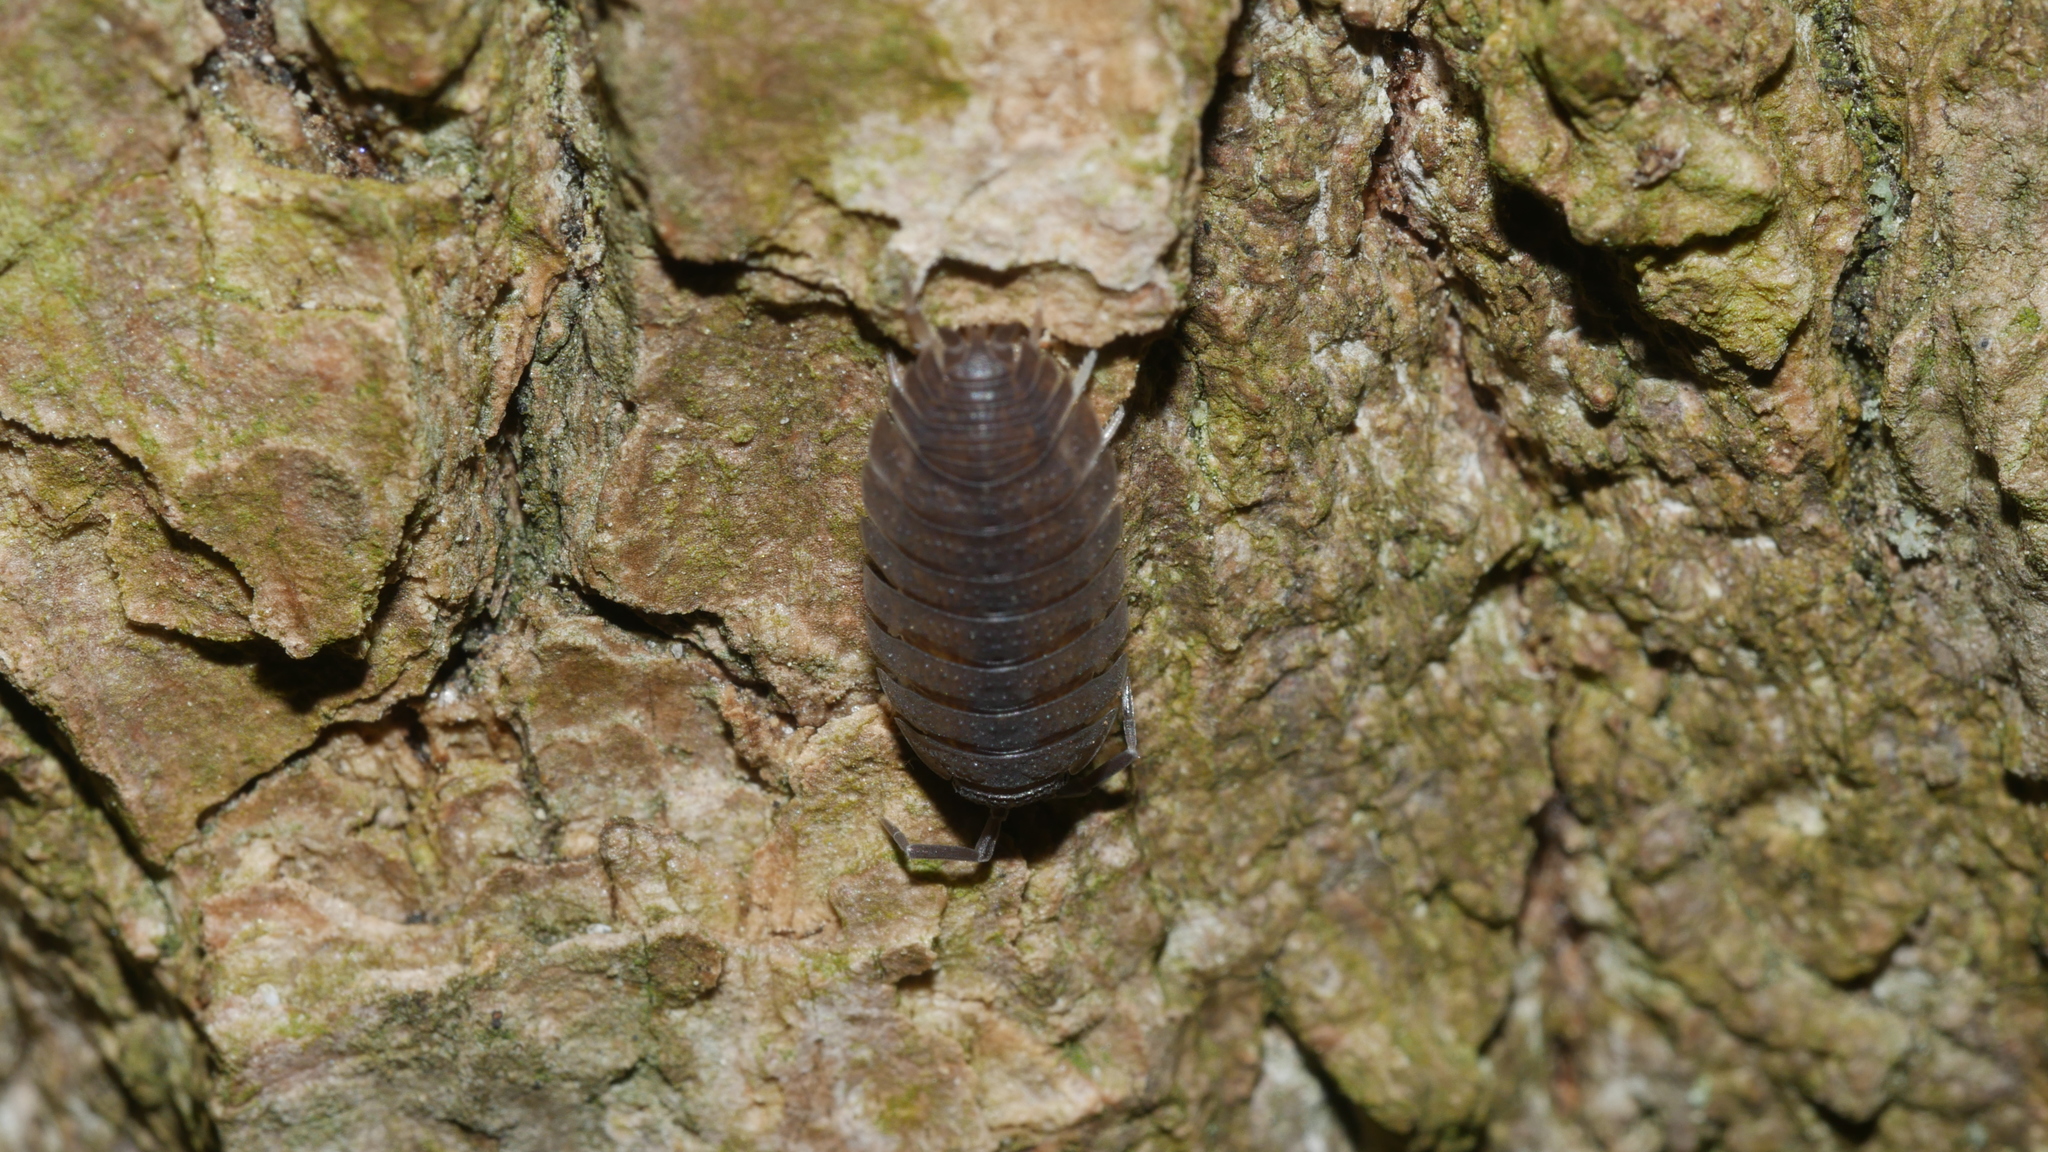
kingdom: Animalia
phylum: Arthropoda
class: Malacostraca
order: Isopoda
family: Porcellionidae
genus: Porcellio
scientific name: Porcellio scaber
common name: Common rough woodlouse
